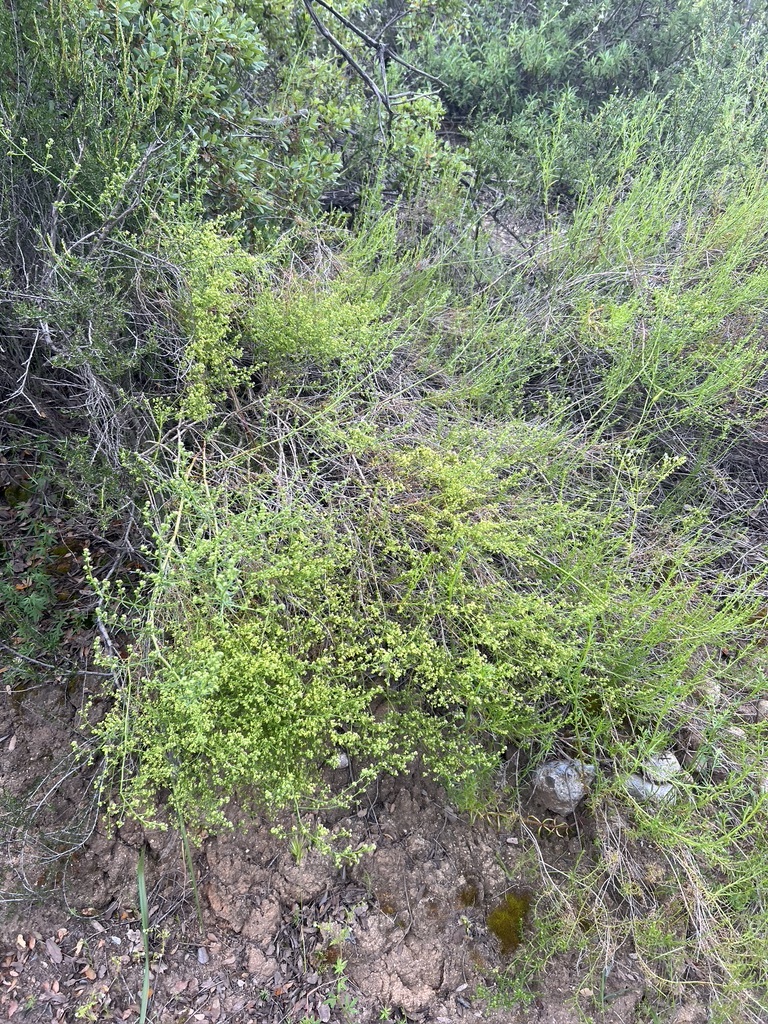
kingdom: Plantae
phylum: Tracheophyta
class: Magnoliopsida
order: Gentianales
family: Rubiaceae
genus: Galium
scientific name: Galium angustifolium
